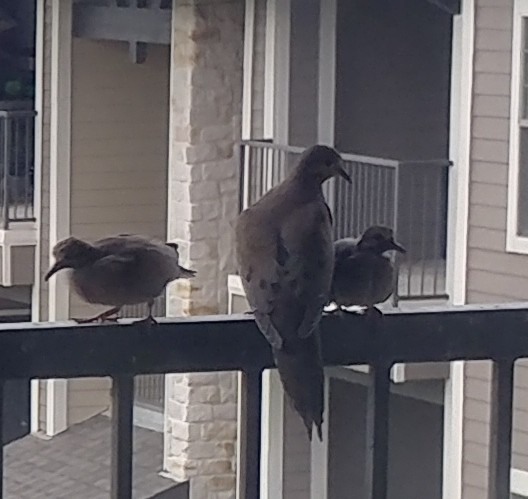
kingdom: Animalia
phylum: Chordata
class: Aves
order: Columbiformes
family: Columbidae
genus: Zenaida
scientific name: Zenaida macroura
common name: Mourning dove
